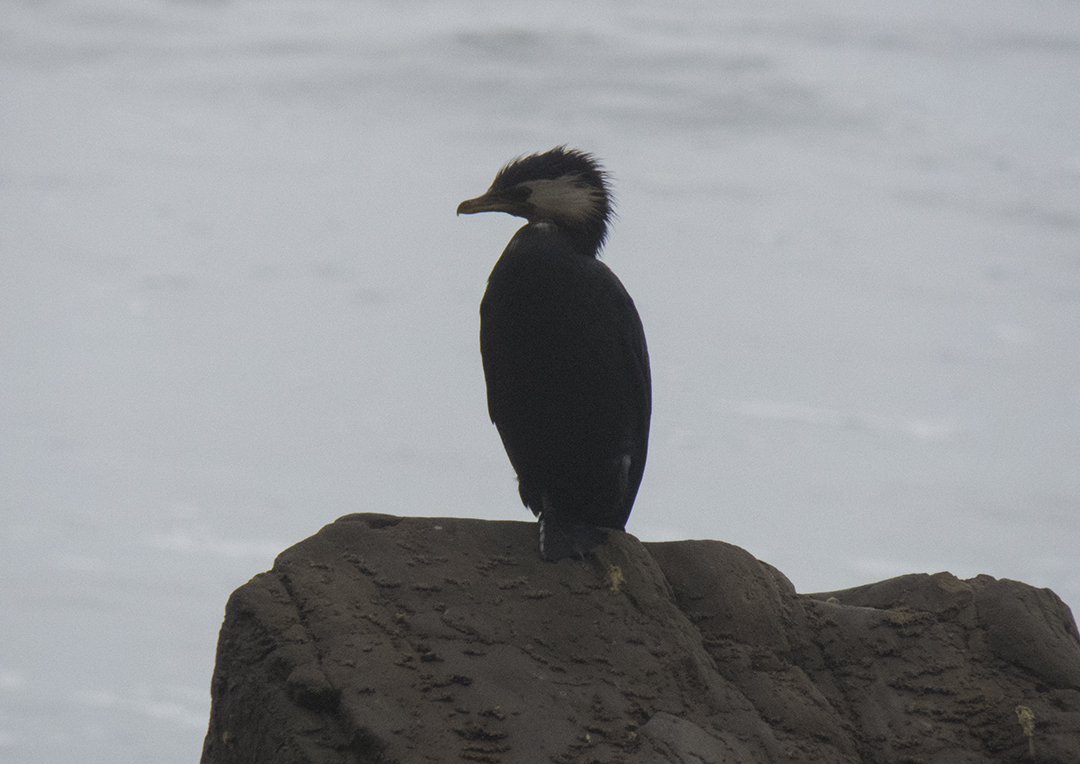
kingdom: Animalia
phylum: Chordata
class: Aves
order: Suliformes
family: Phalacrocoracidae
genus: Microcarbo
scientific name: Microcarbo melanoleucos
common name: Little pied cormorant
